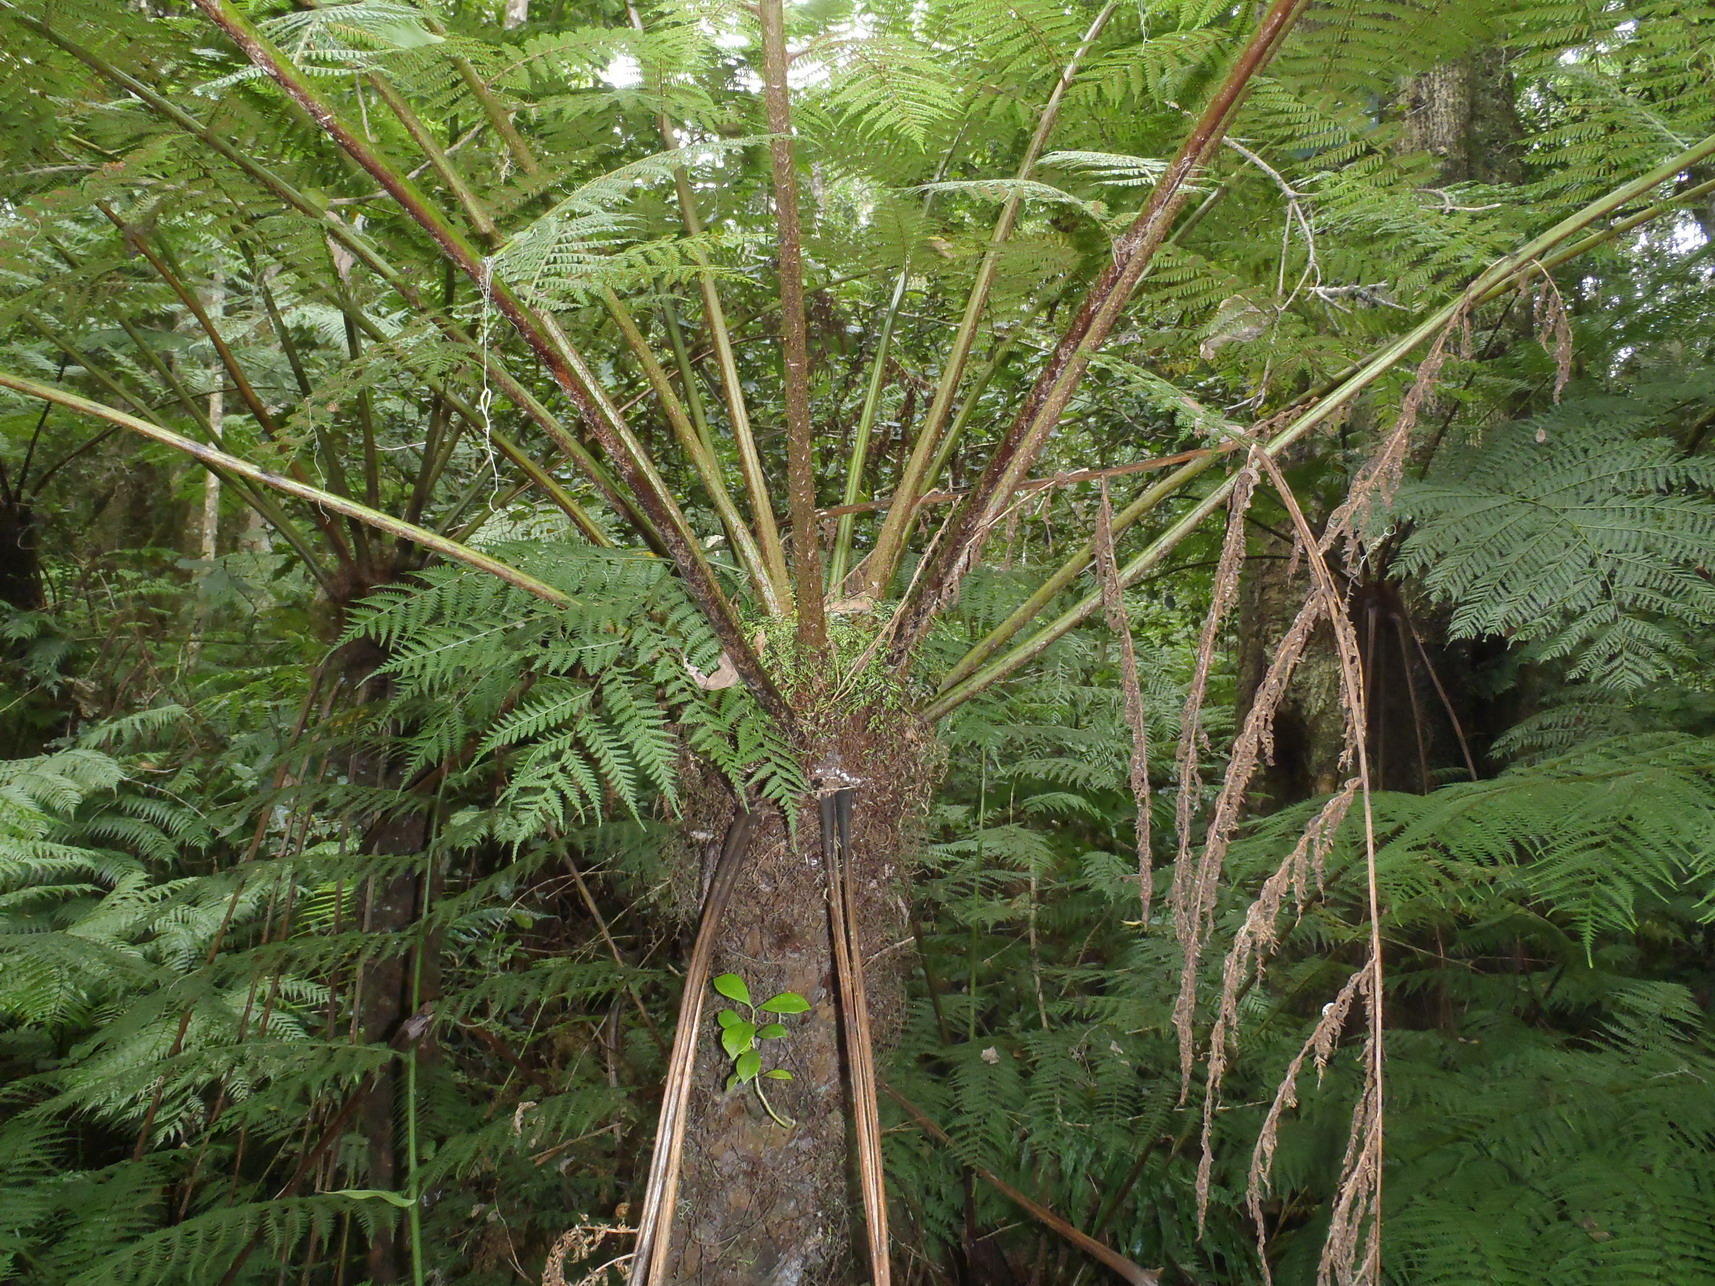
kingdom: Plantae
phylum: Tracheophyta
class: Polypodiopsida
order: Cyatheales
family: Cyatheaceae
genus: Gymnosphaera
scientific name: Gymnosphaera capensis
